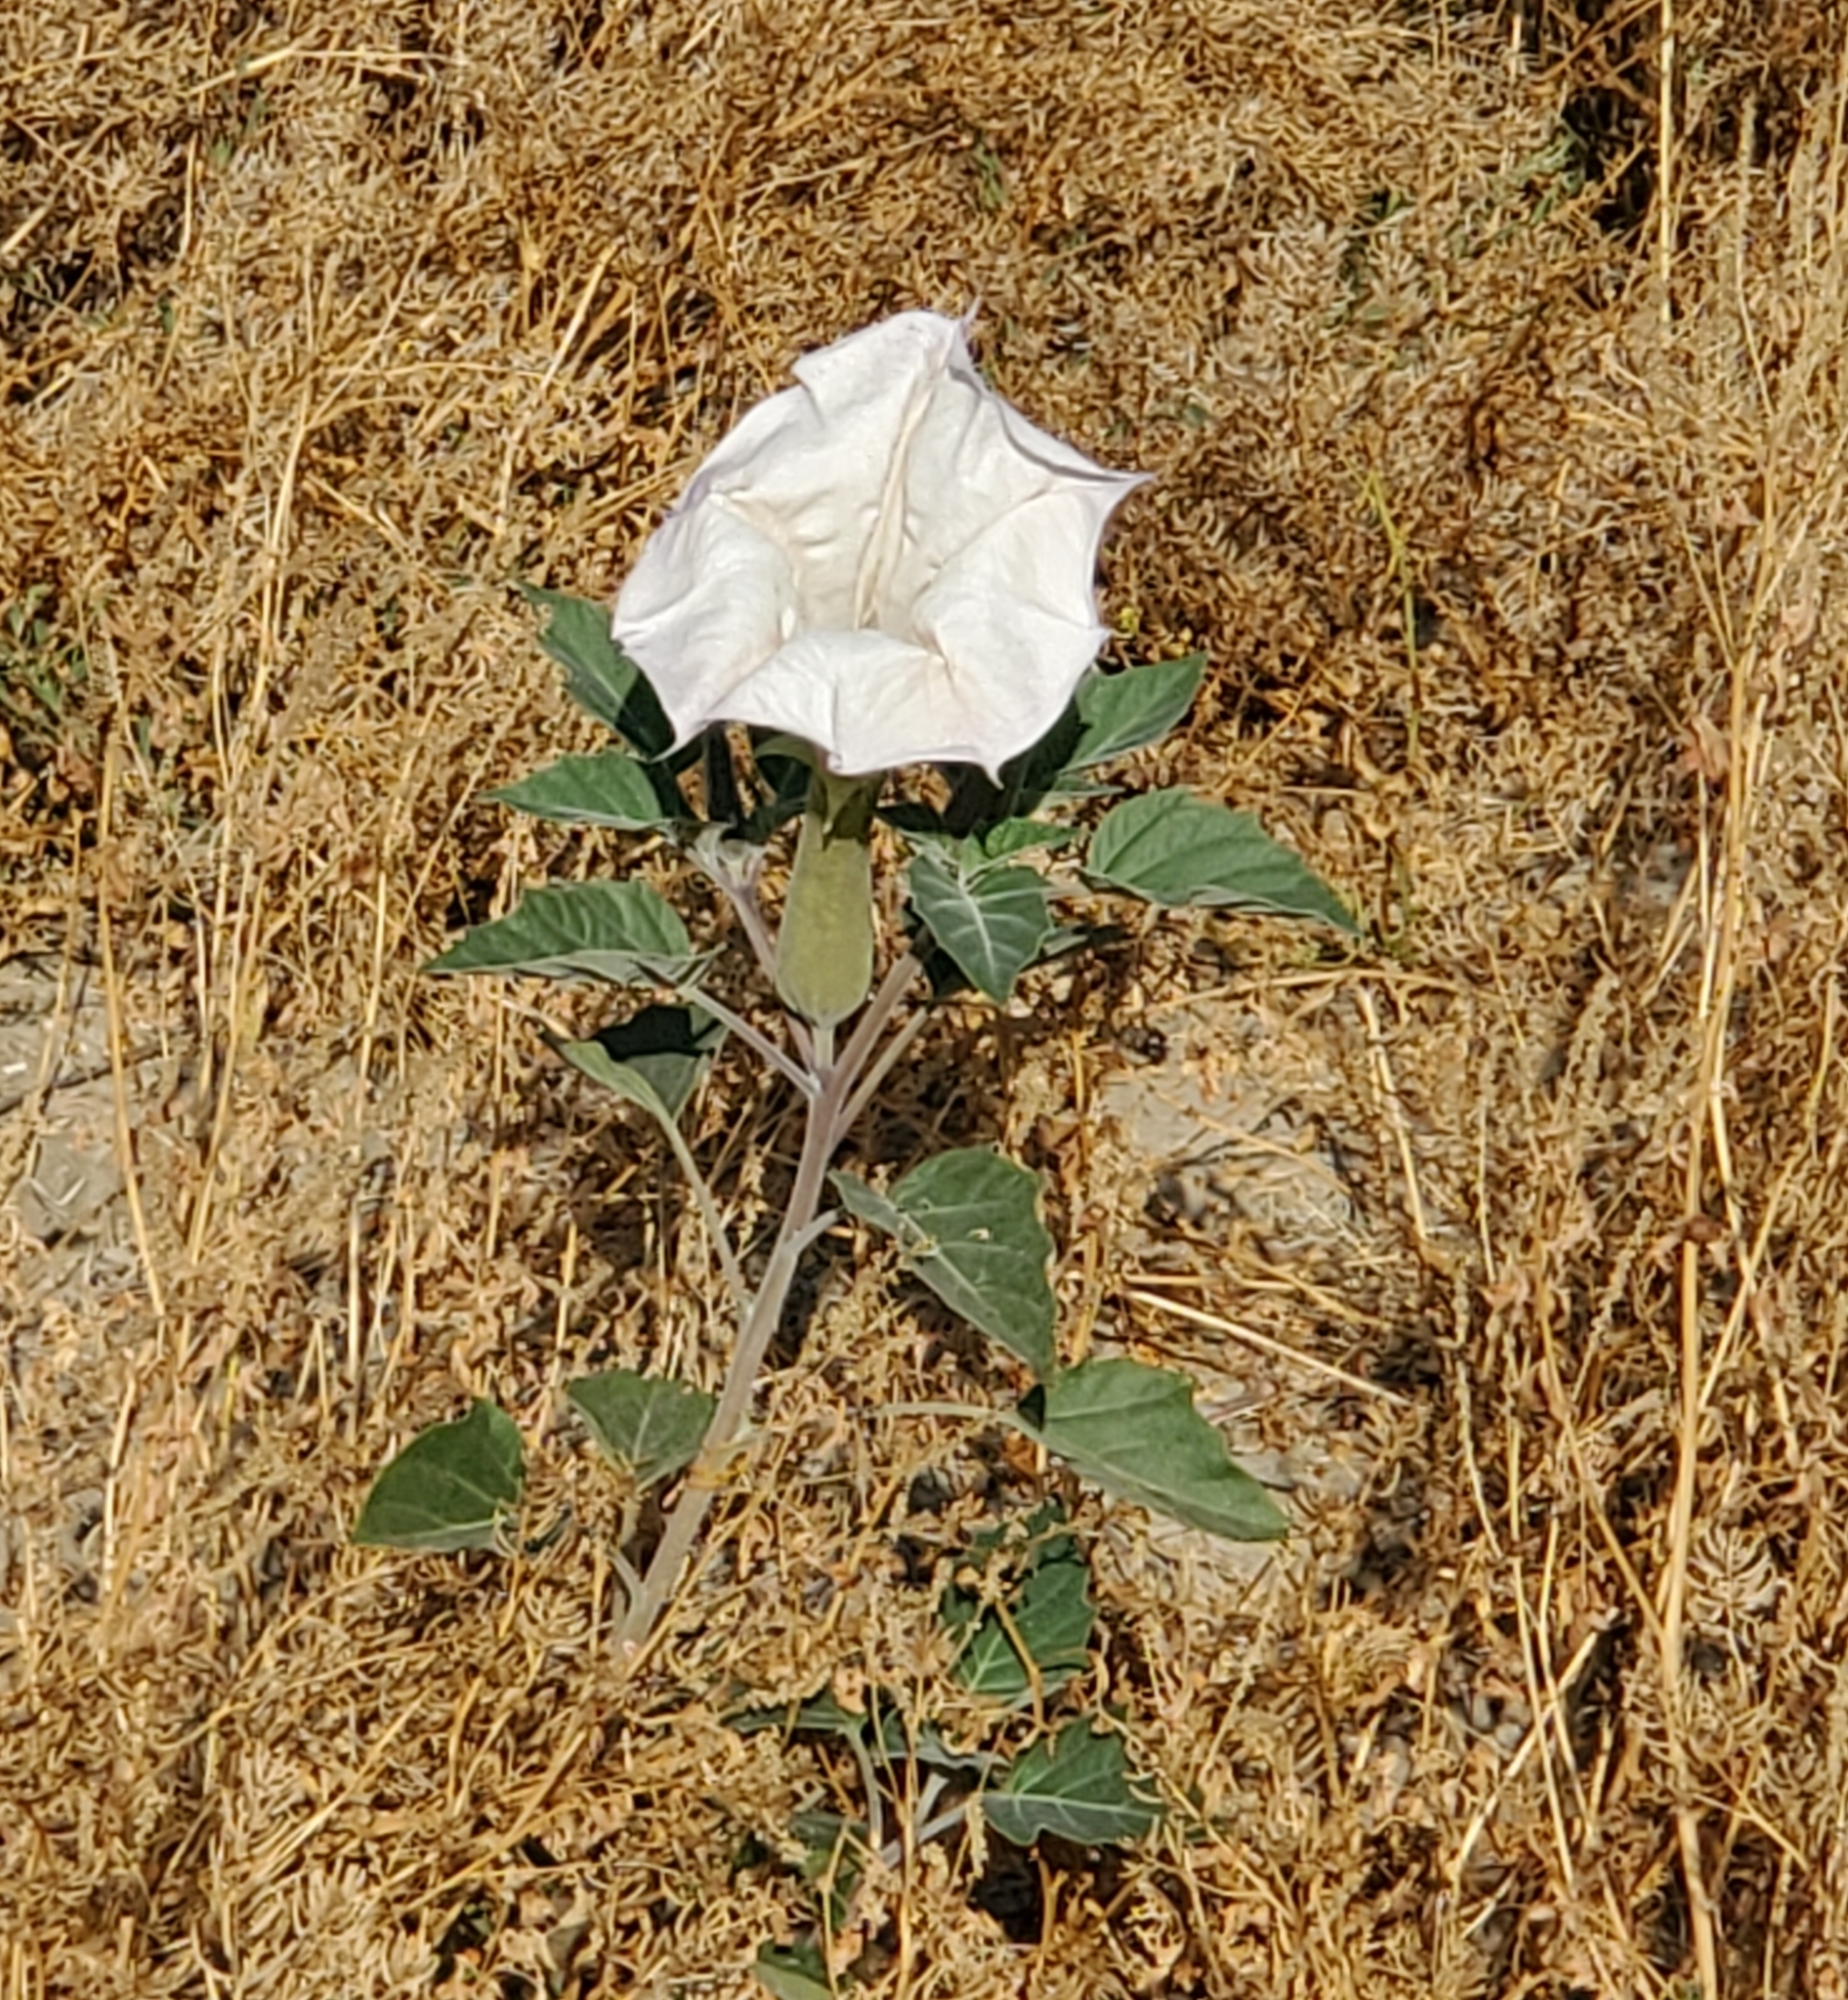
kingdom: Plantae
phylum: Tracheophyta
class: Magnoliopsida
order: Solanales
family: Solanaceae
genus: Datura
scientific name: Datura wrightii
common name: Sacred thorn-apple
